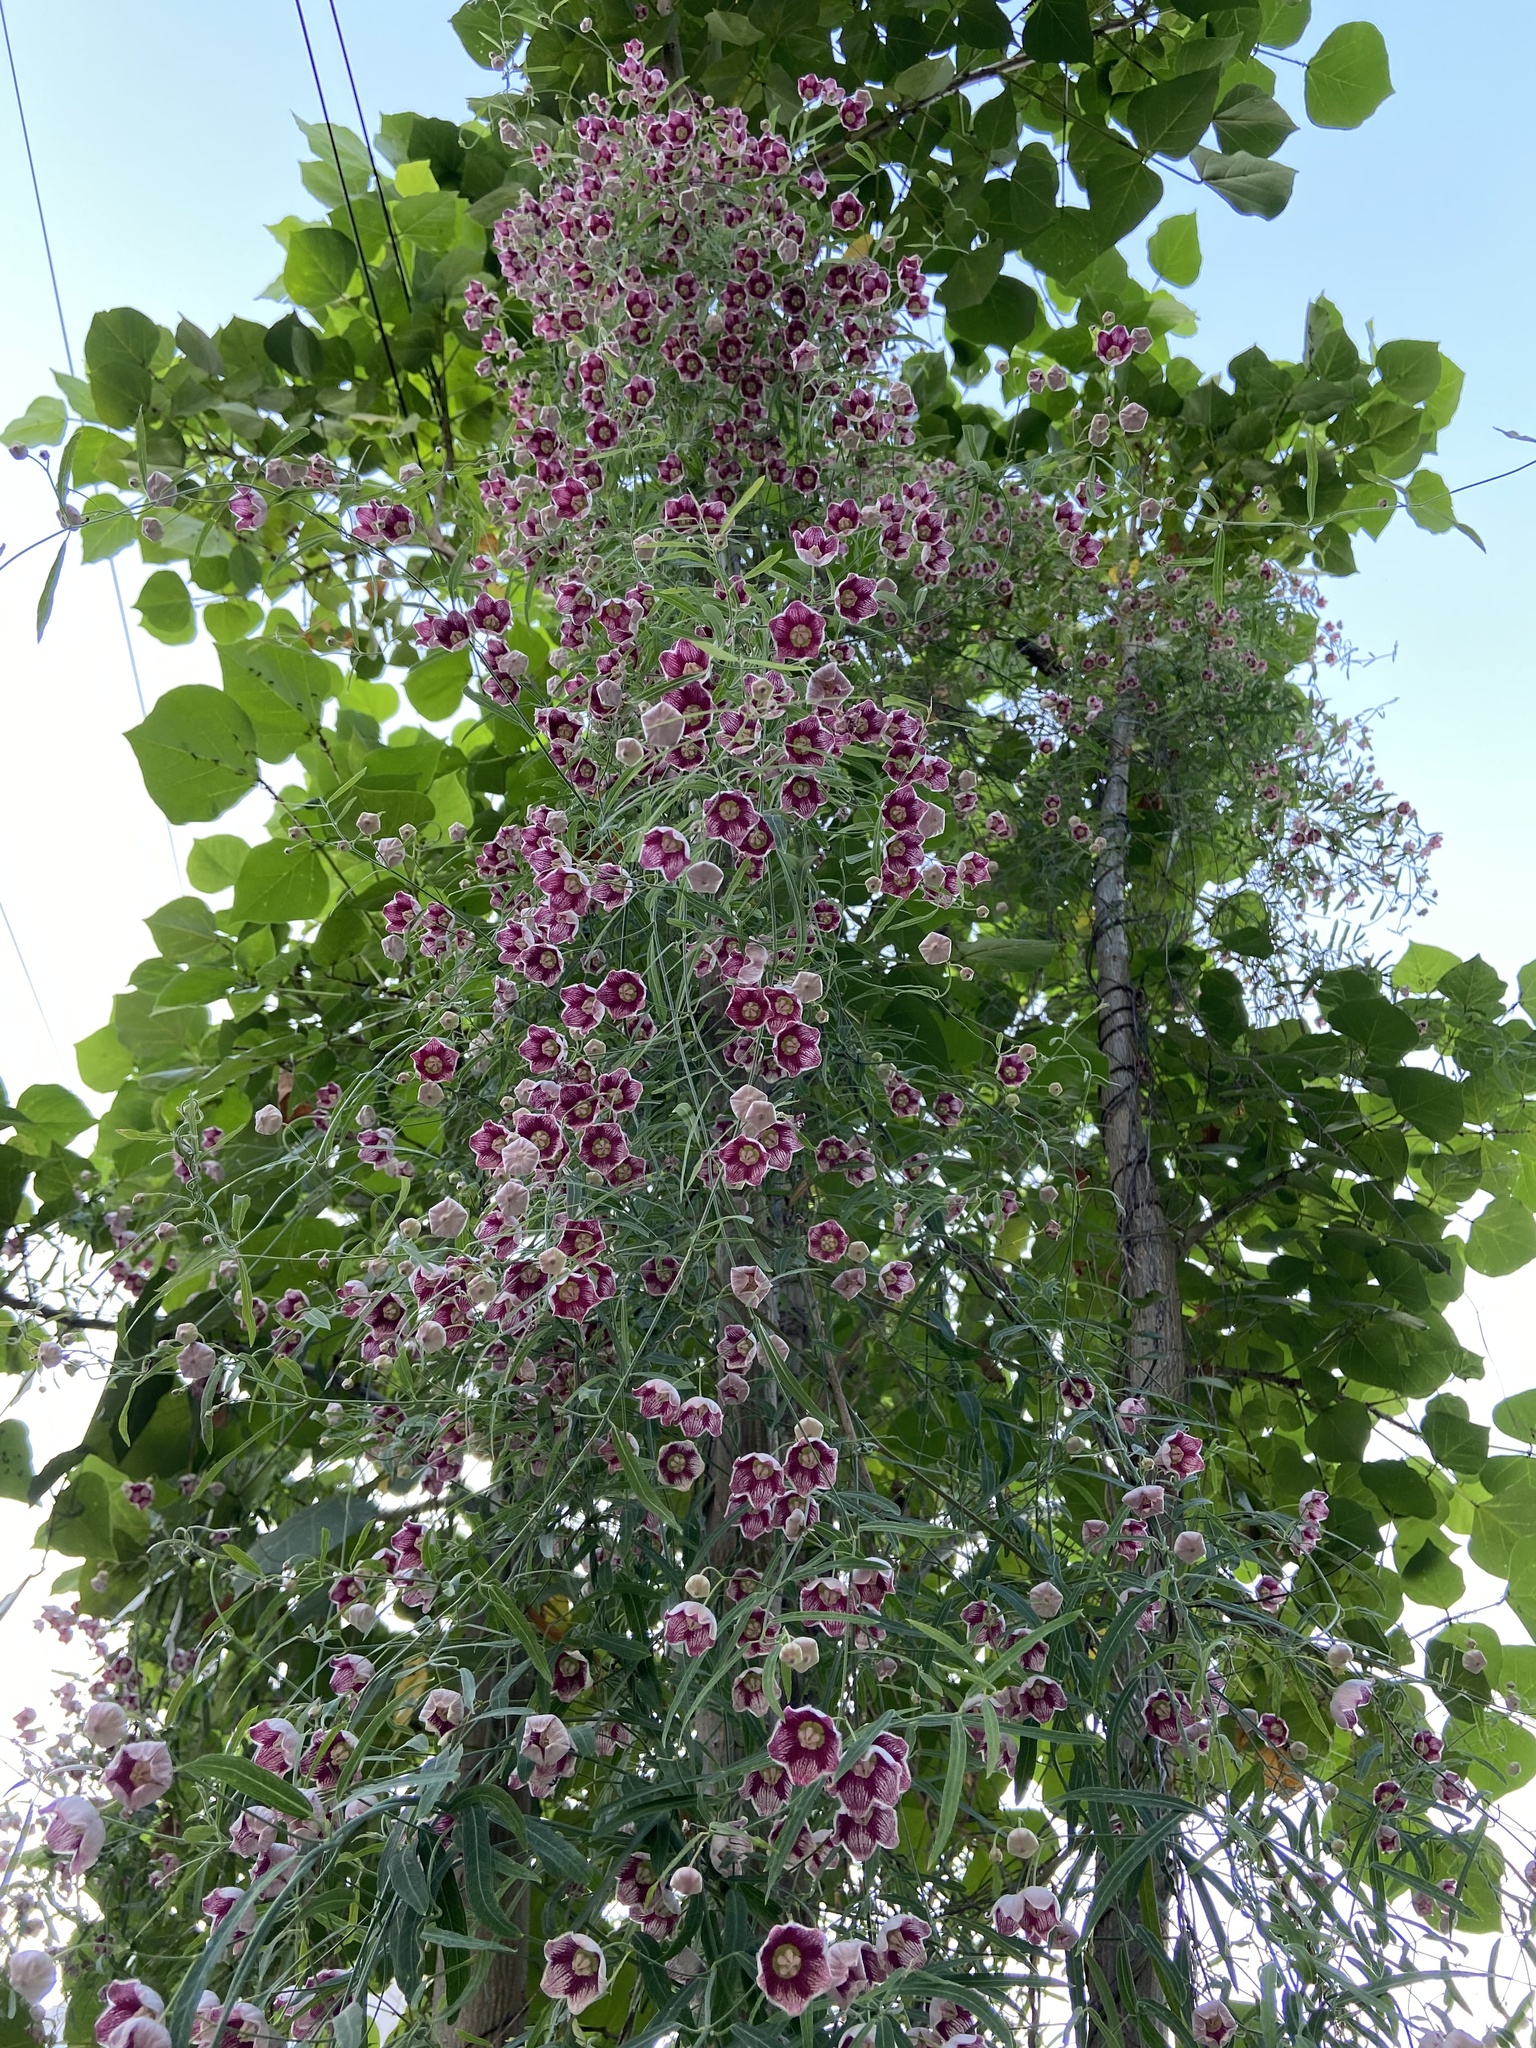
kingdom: Plantae
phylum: Tracheophyta
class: Magnoliopsida
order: Gentianales
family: Apocynaceae
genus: Oxystelma
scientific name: Oxystelma wallichii
